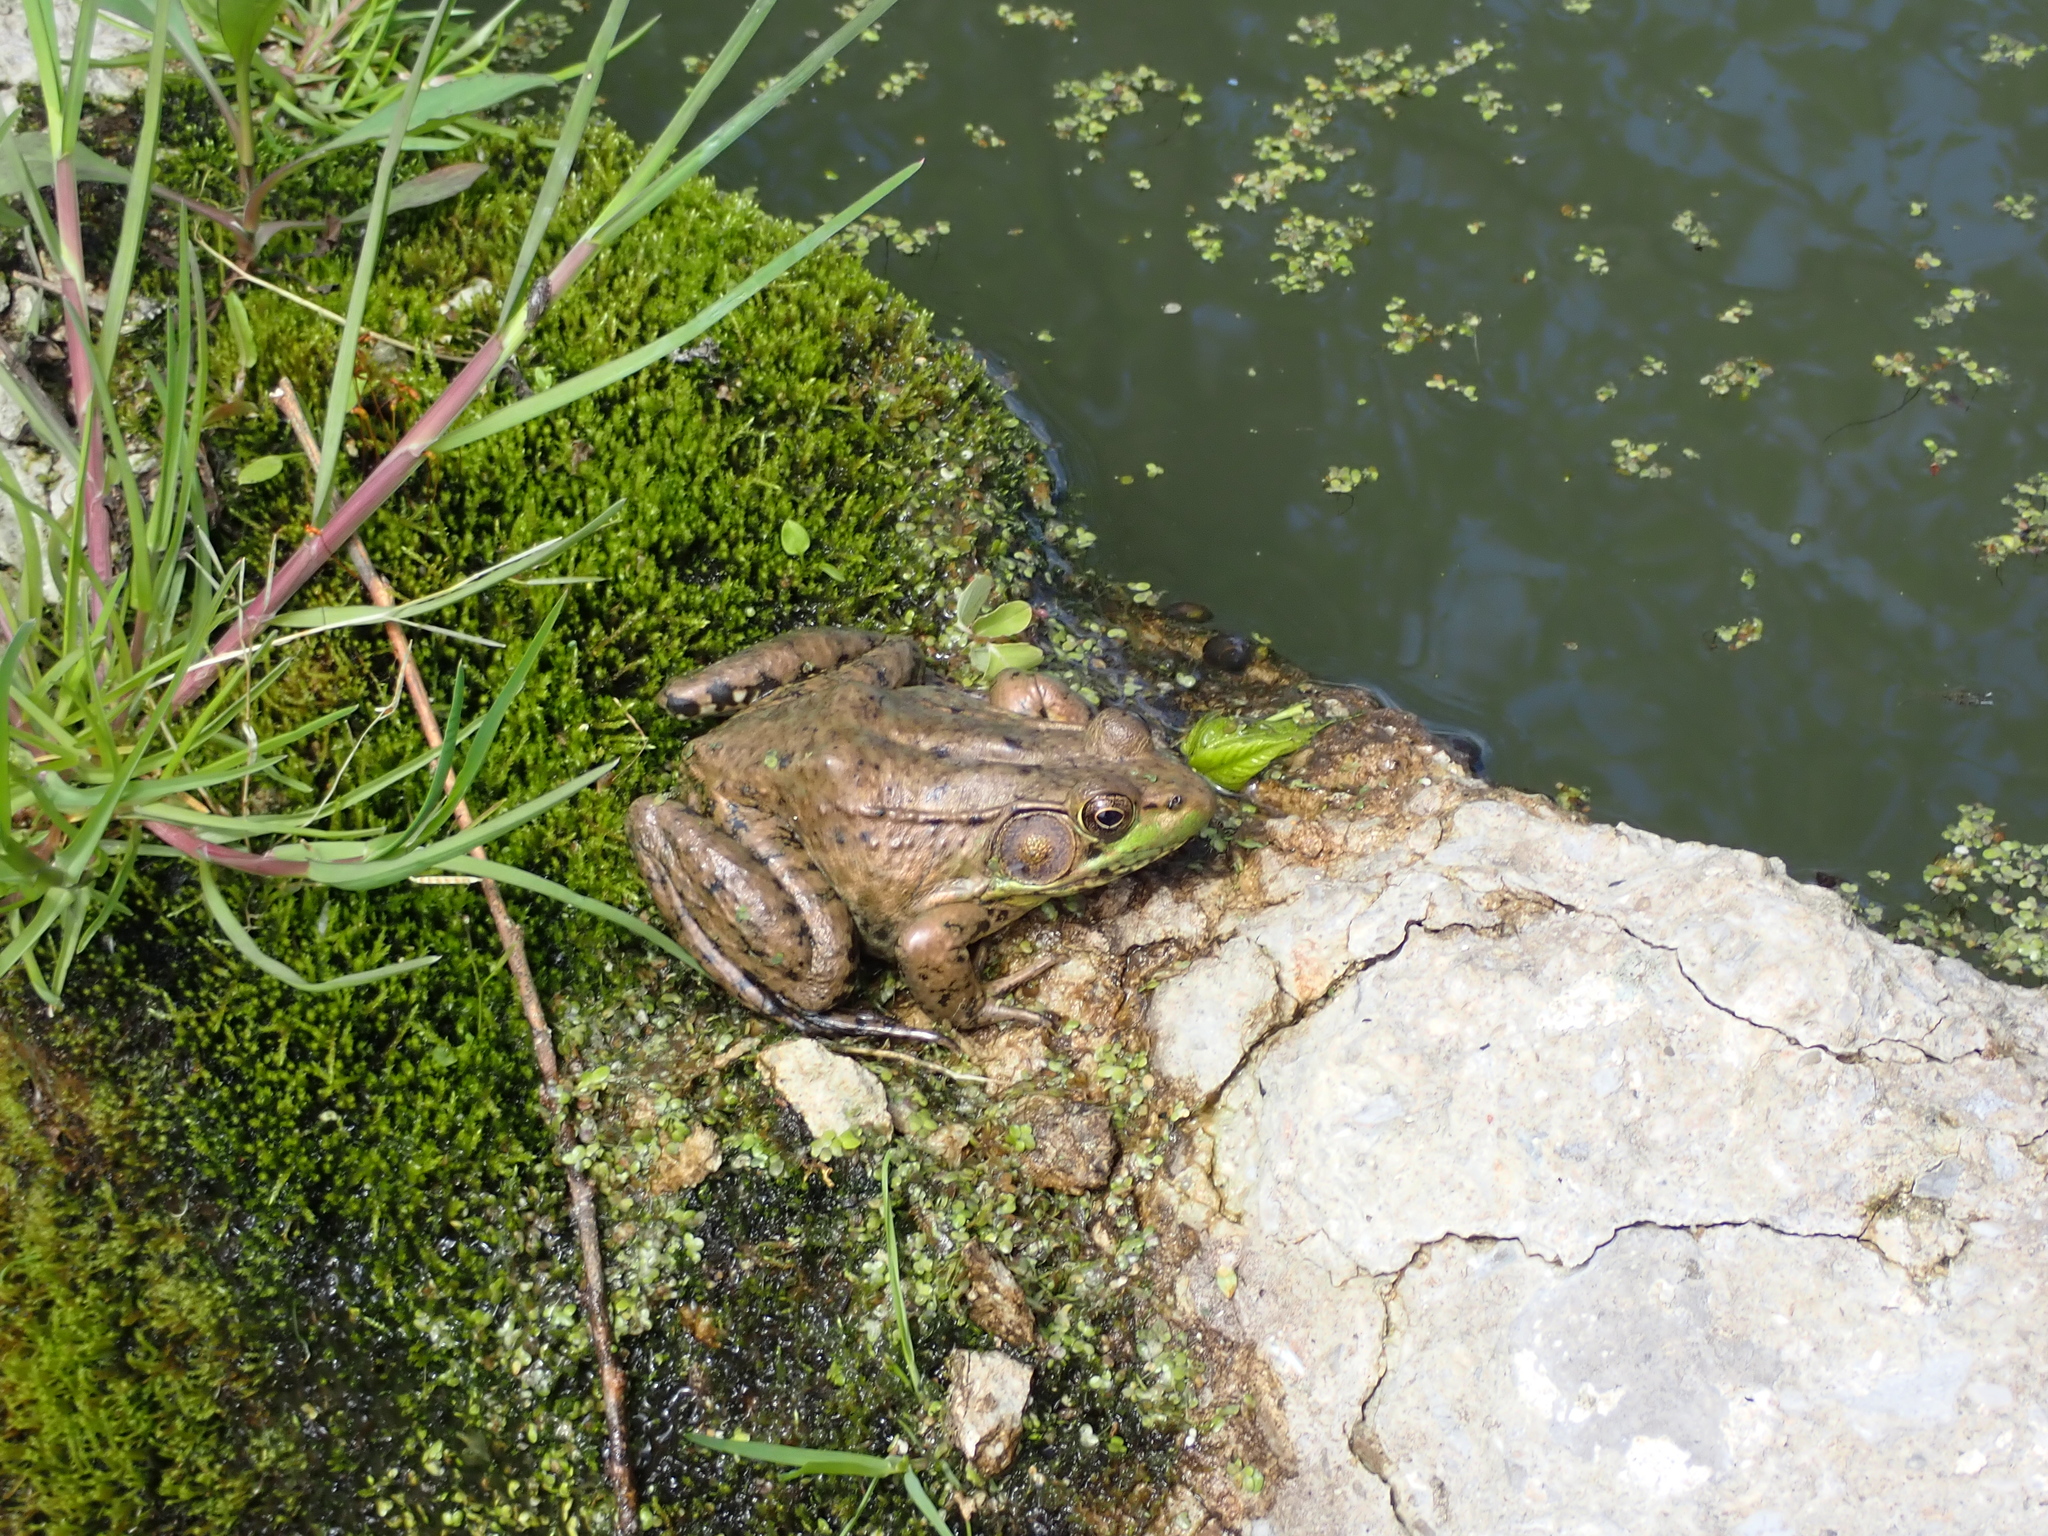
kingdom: Animalia
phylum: Chordata
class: Amphibia
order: Anura
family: Ranidae
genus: Lithobates
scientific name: Lithobates clamitans
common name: Green frog
